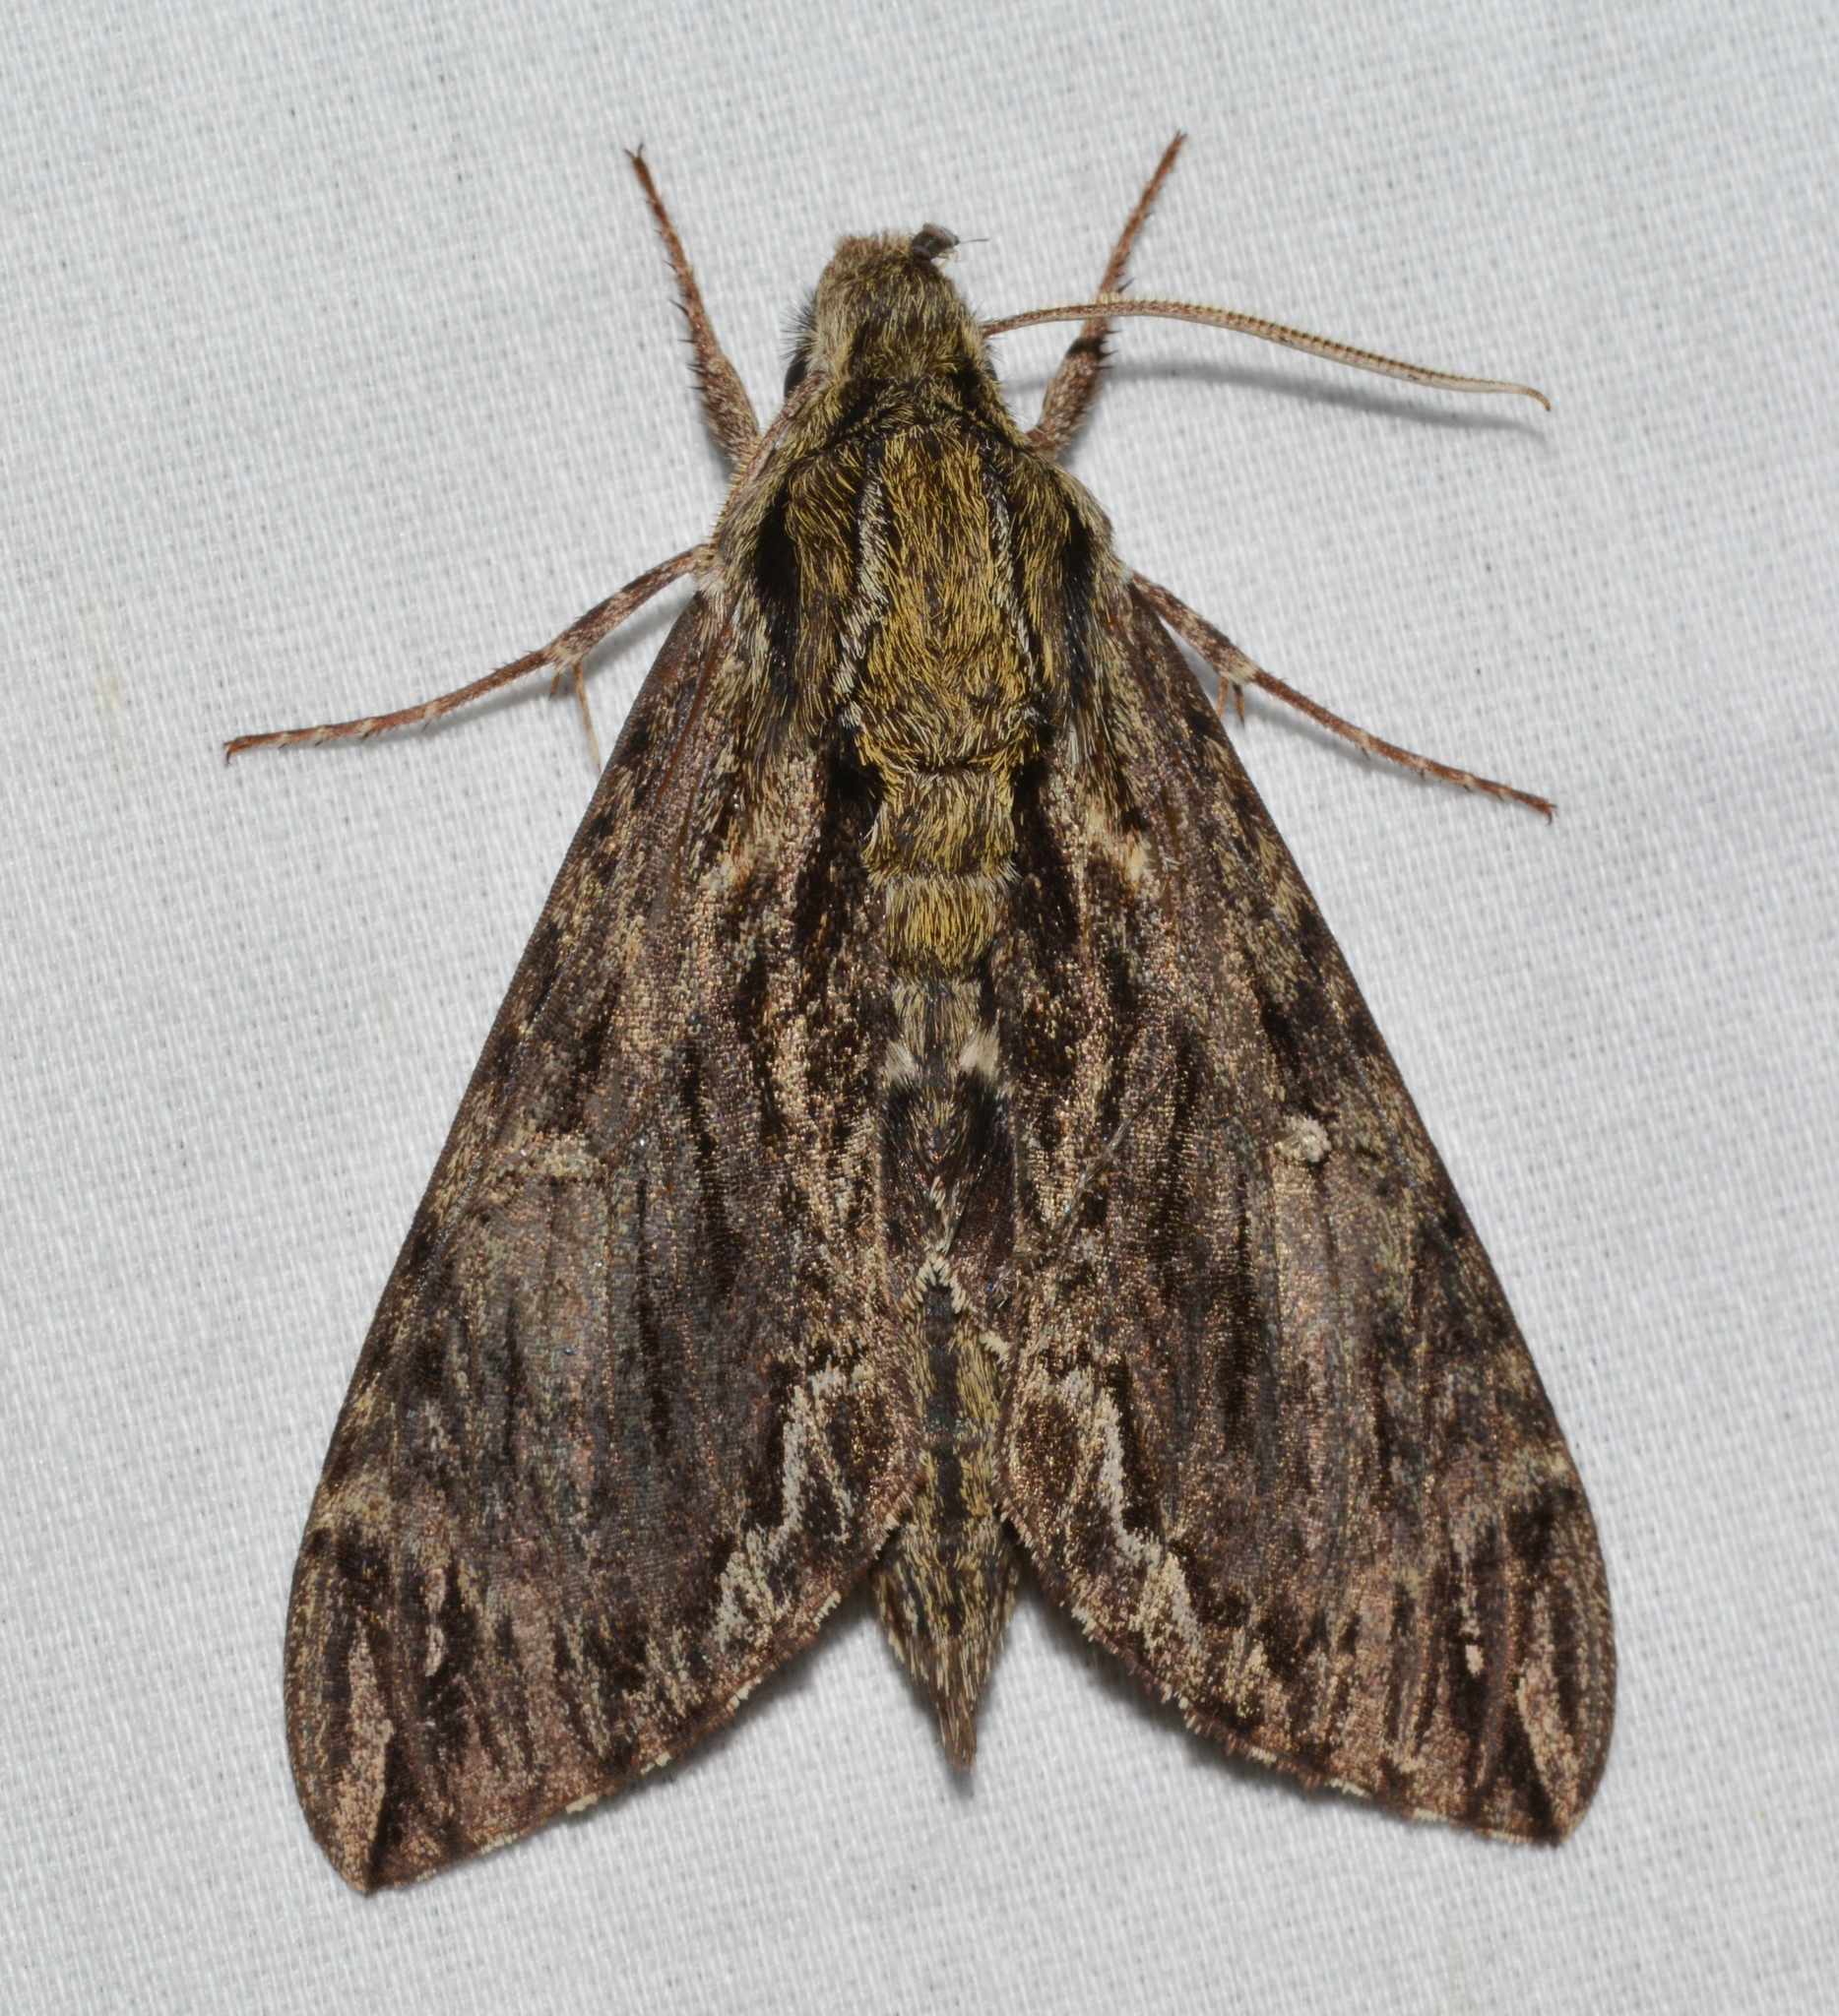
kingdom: Animalia
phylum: Arthropoda
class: Insecta
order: Lepidoptera
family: Sphingidae
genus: Lintneria
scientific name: Lintneria eremitus
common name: Hermit sphinx
